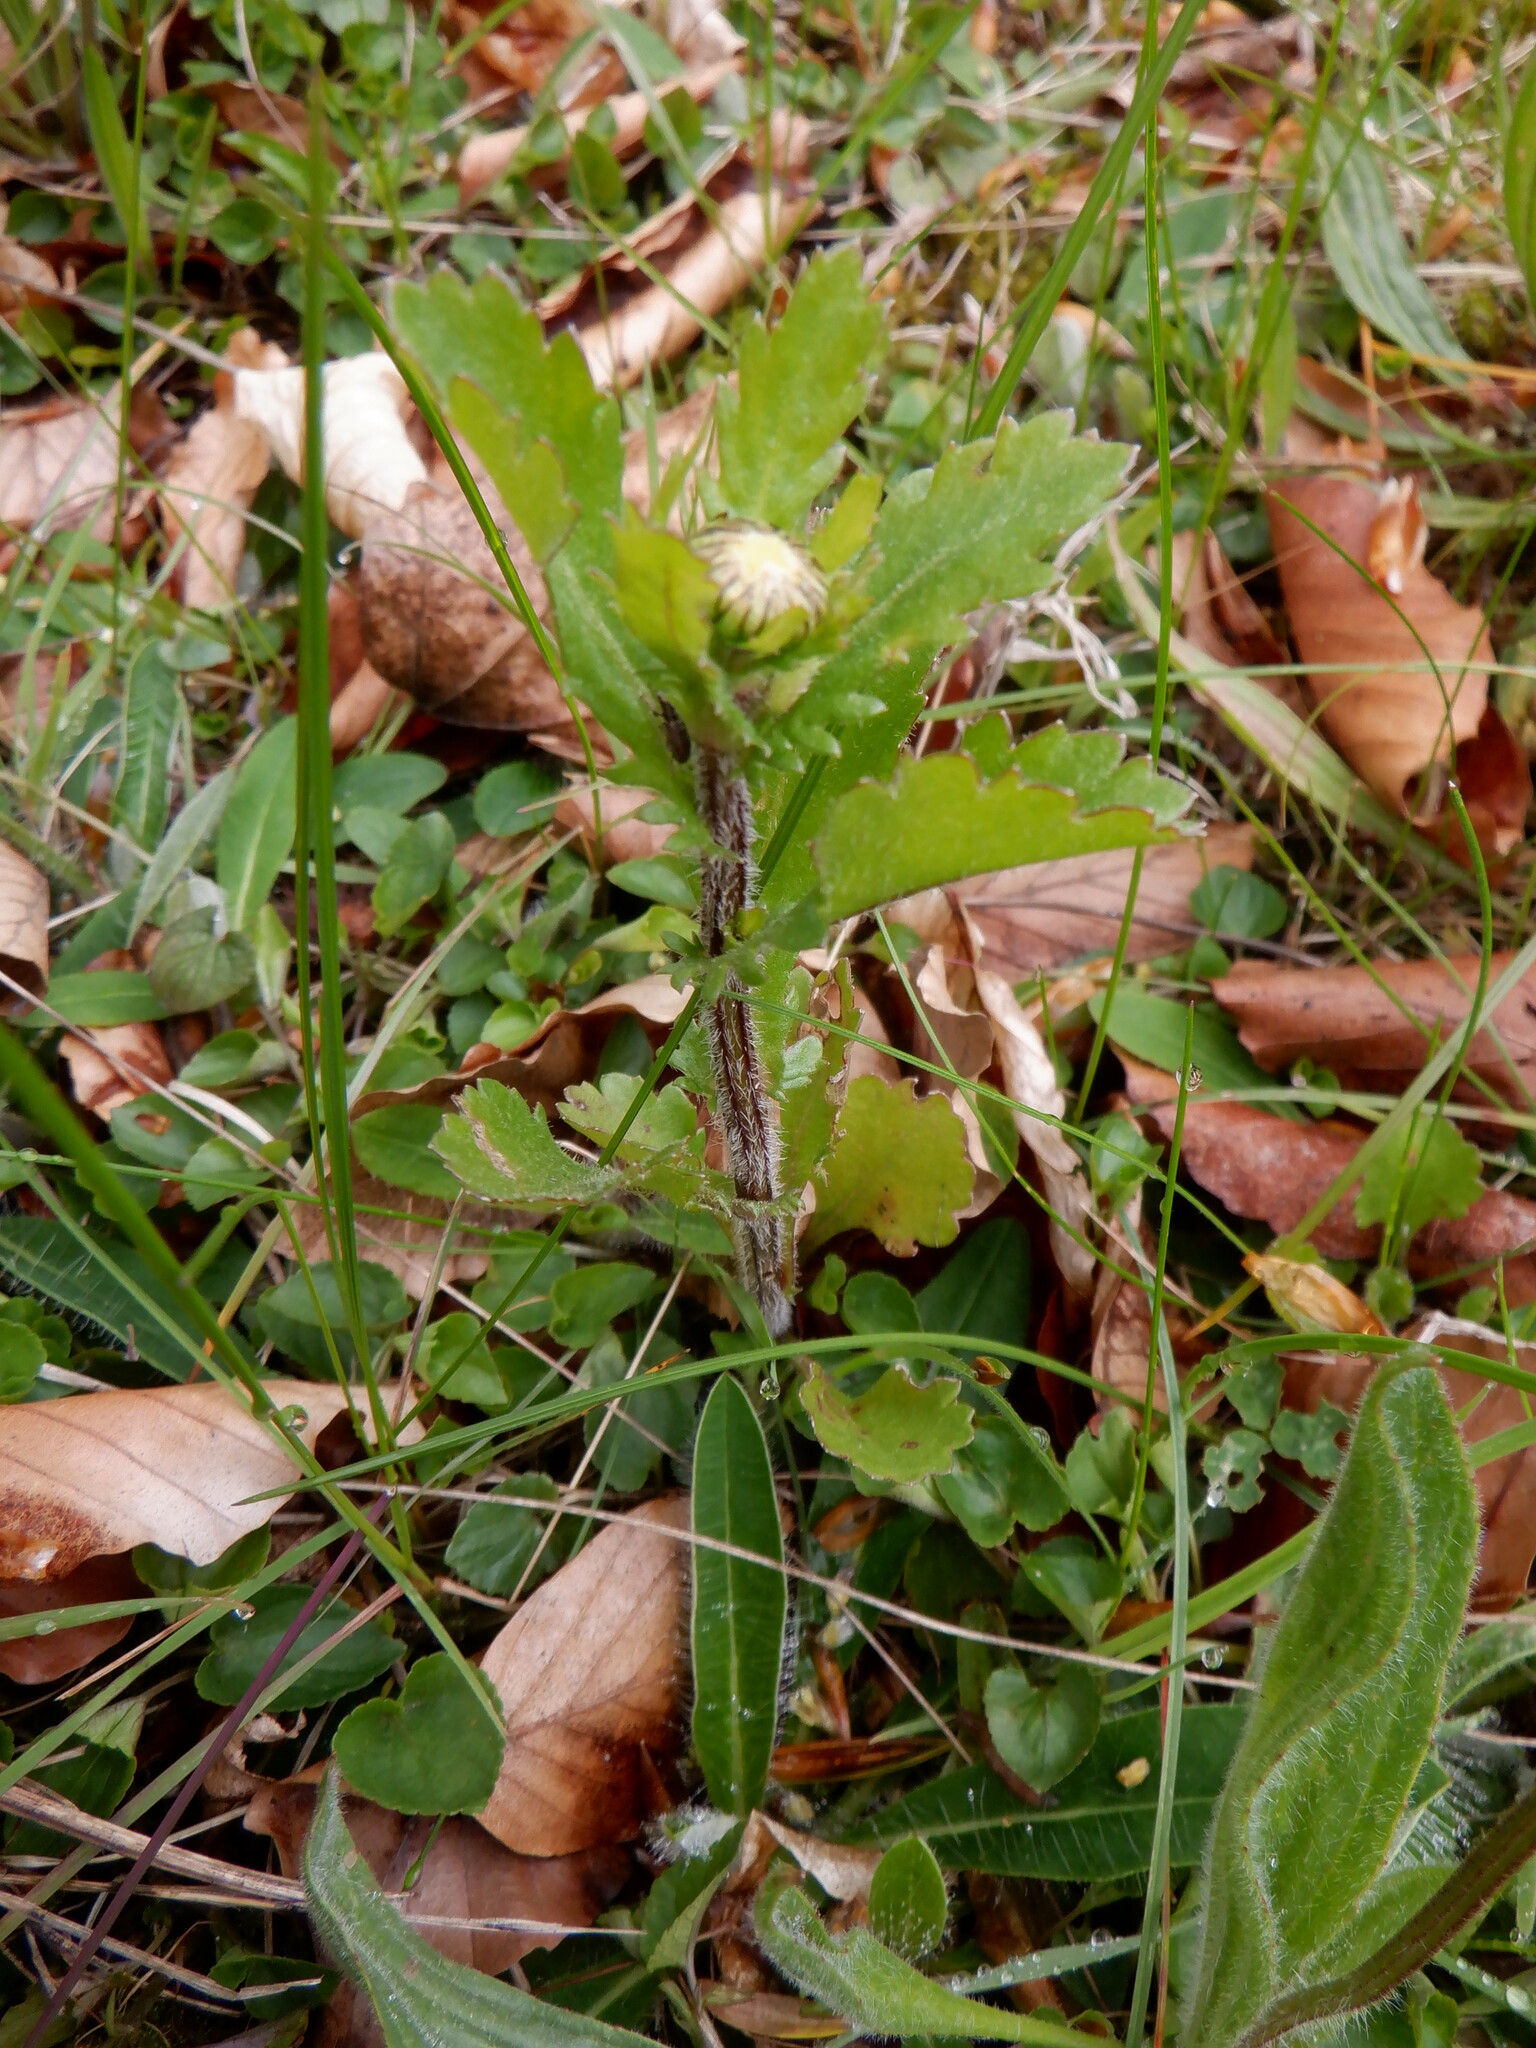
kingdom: Plantae
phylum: Tracheophyta
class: Magnoliopsida
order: Asterales
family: Asteraceae
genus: Leucanthemum
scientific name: Leucanthemum vulgare
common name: Oxeye daisy
